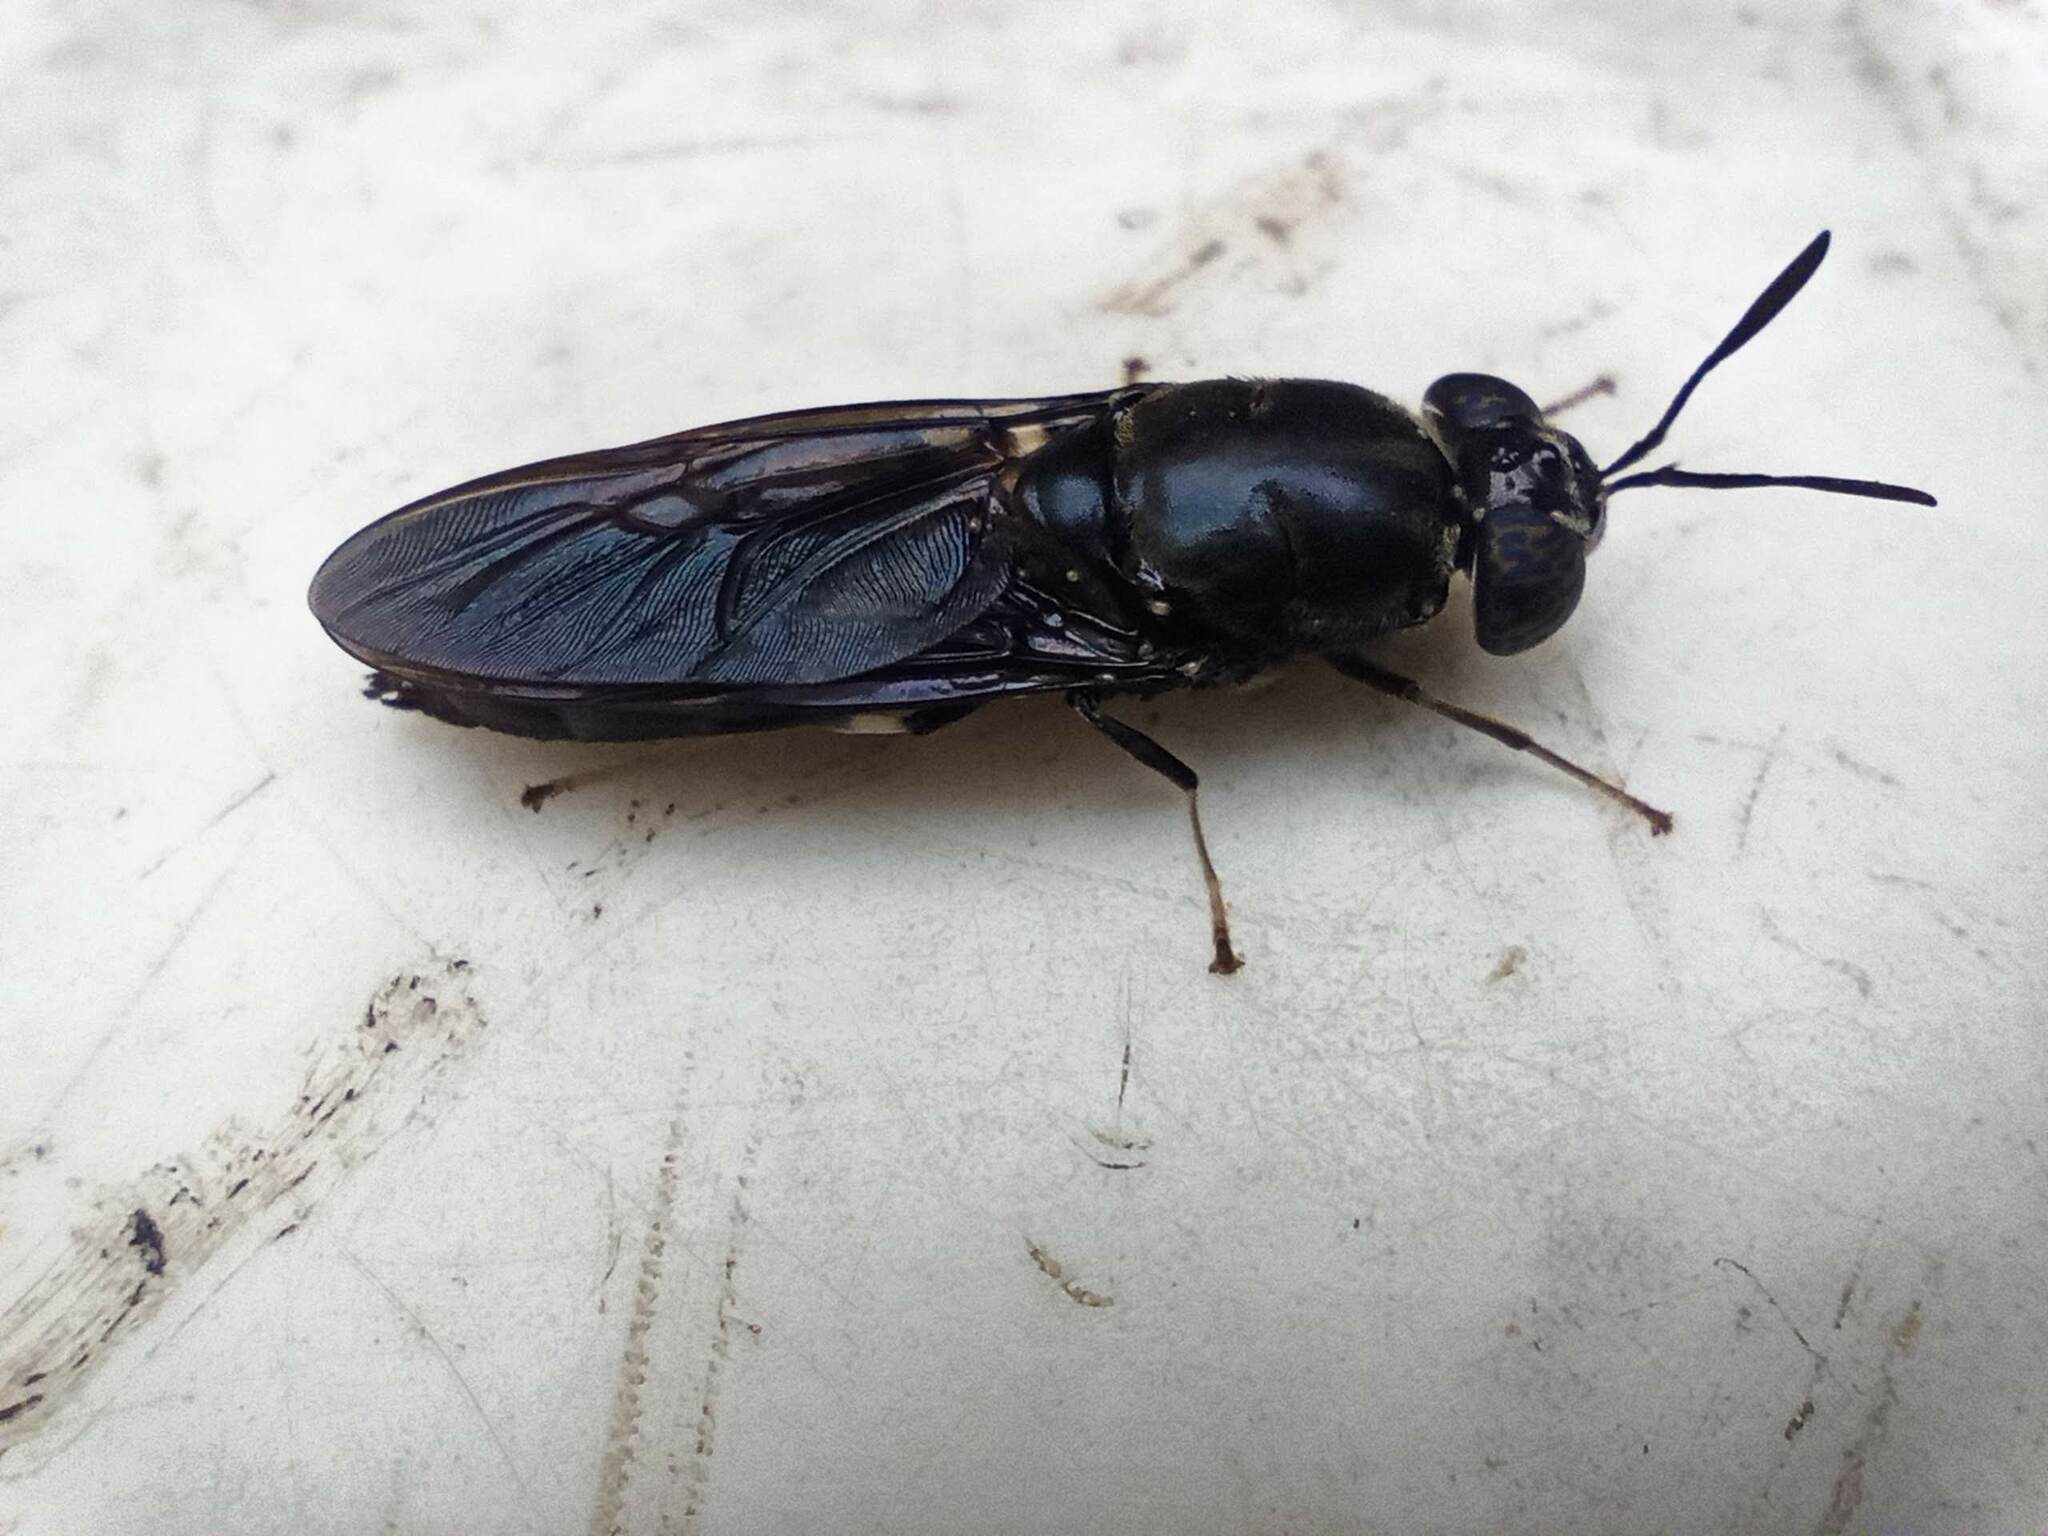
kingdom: Animalia
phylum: Arthropoda
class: Insecta
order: Diptera
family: Stratiomyidae
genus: Hermetia
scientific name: Hermetia illucens
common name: Black soldier fly
